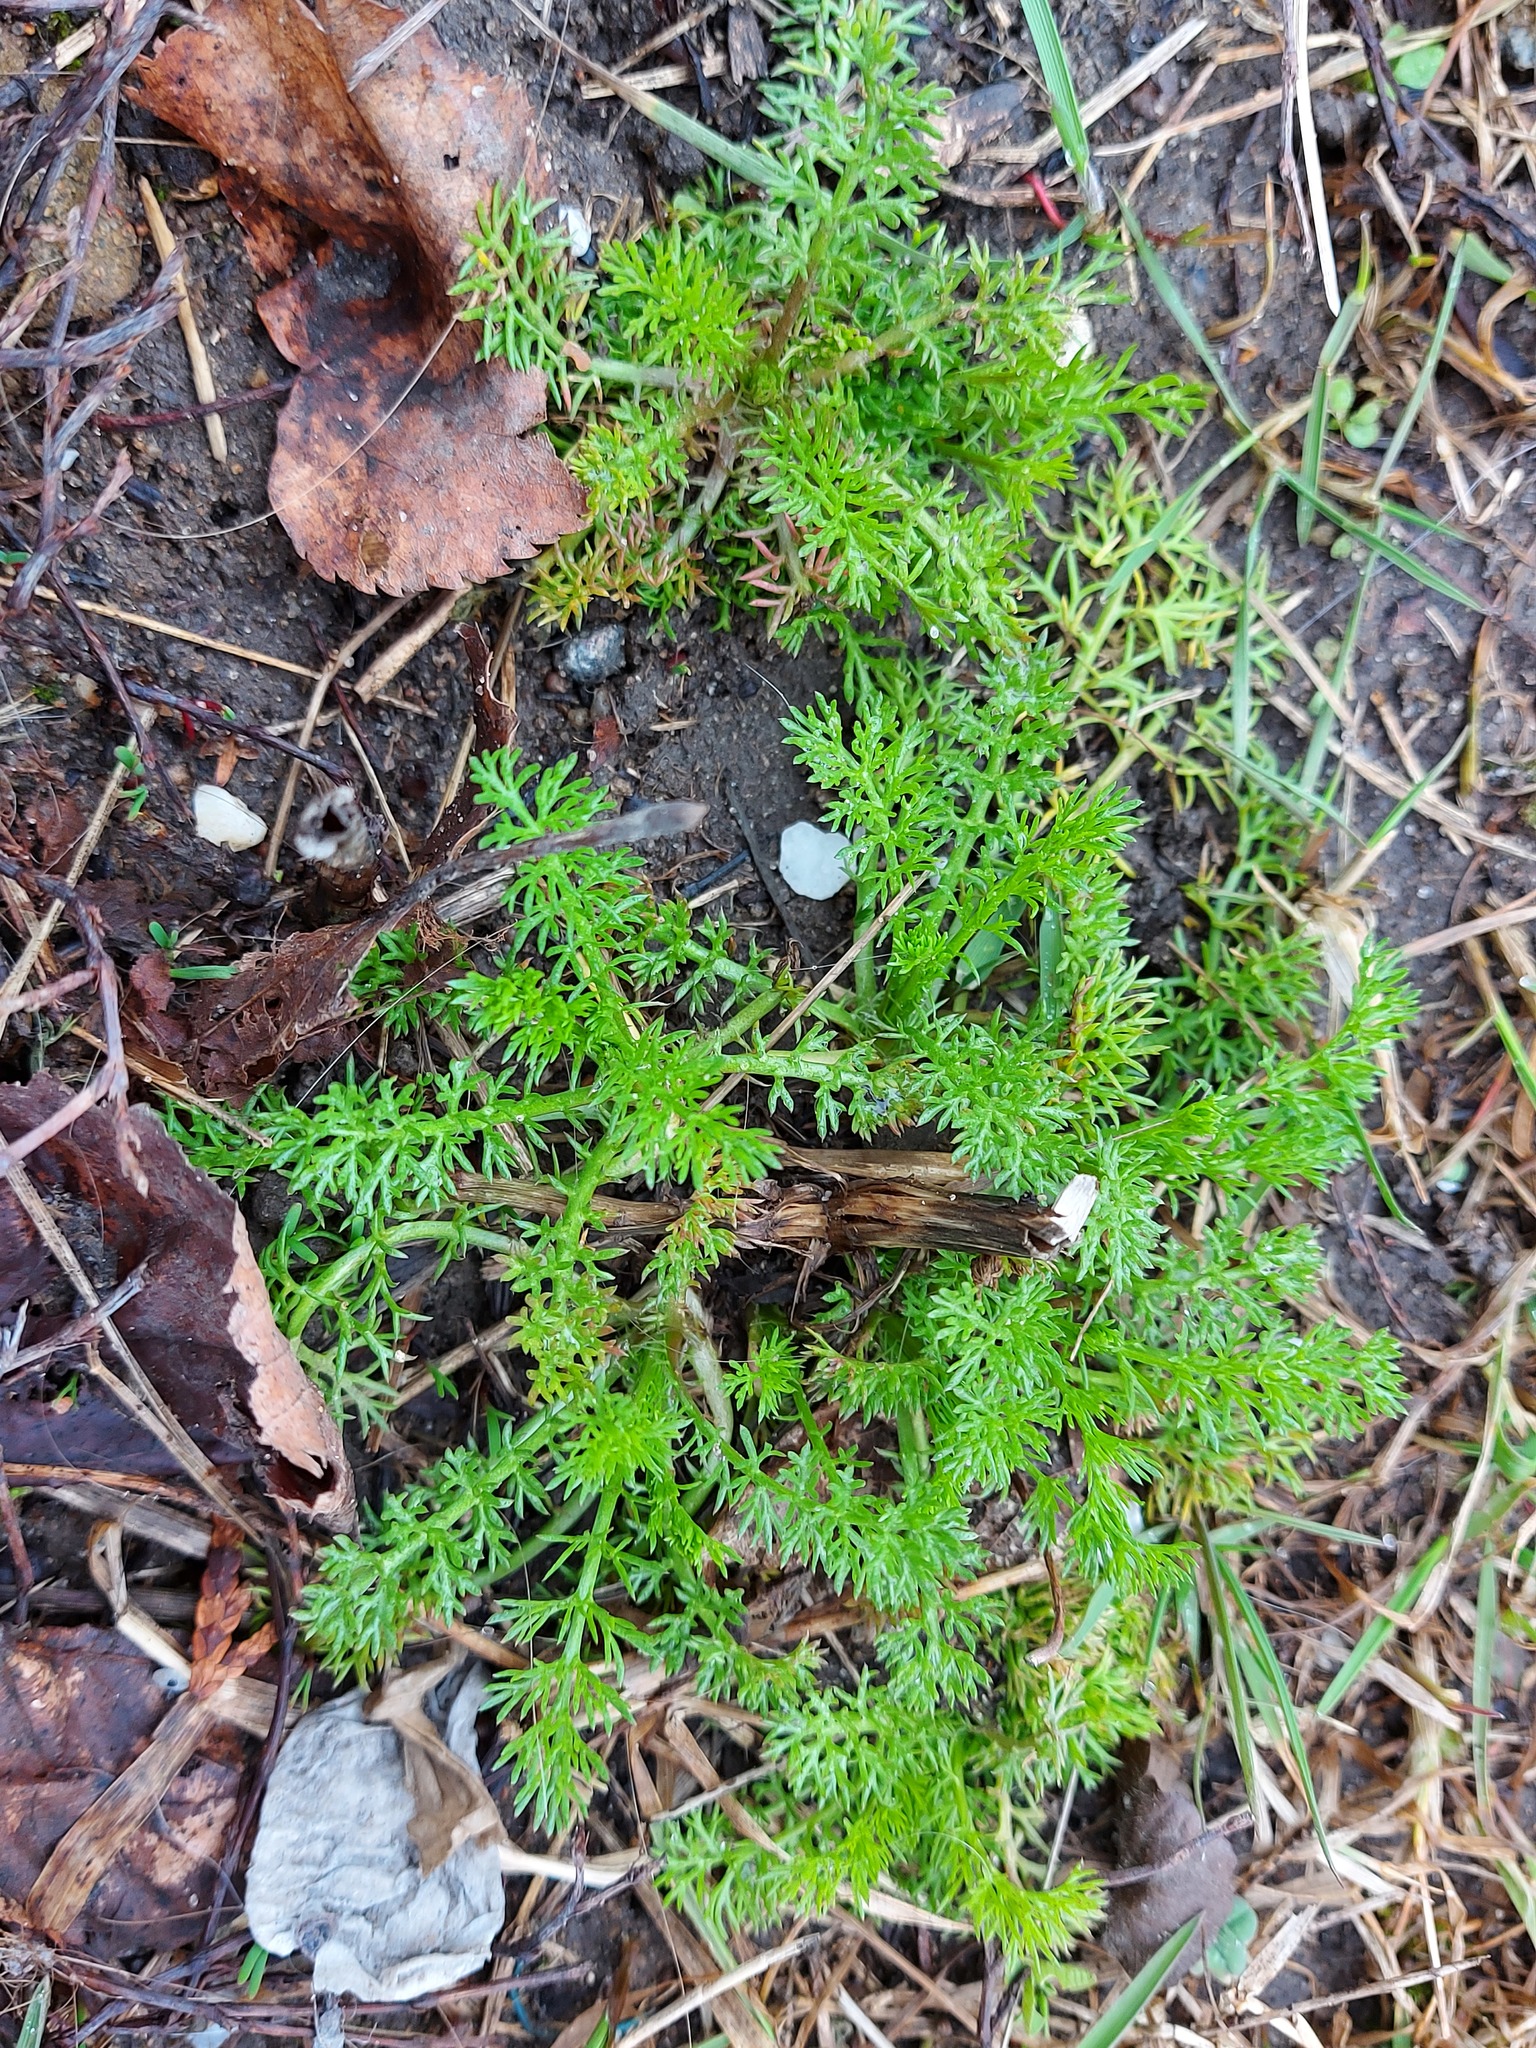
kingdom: Plantae
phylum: Tracheophyta
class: Magnoliopsida
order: Asterales
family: Asteraceae
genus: Tripleurospermum
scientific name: Tripleurospermum inodorum
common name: Scentless mayweed
